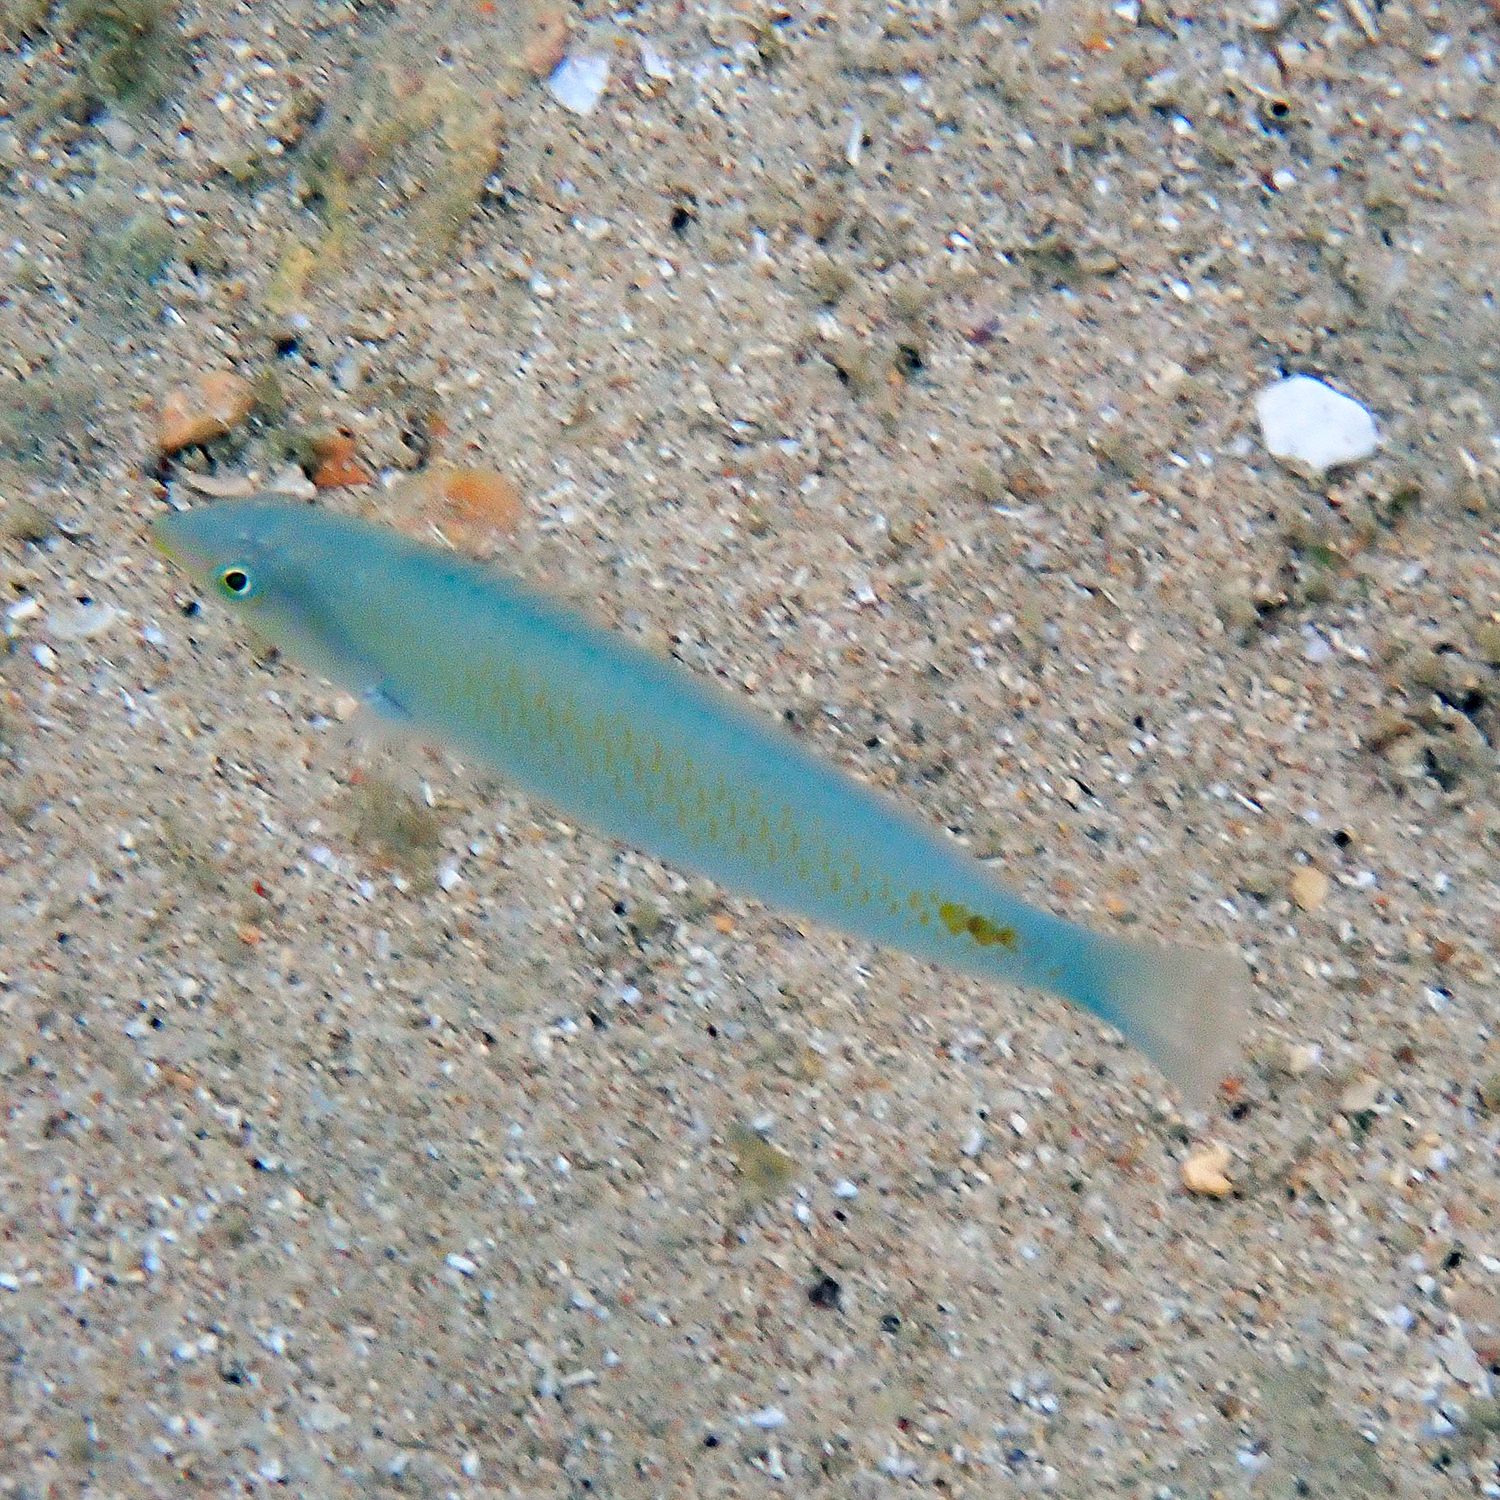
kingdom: Animalia
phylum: Chordata
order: Perciformes
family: Labridae
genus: Halichoeres
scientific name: Halichoeres trimaculatus
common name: Three-spot wrasse
